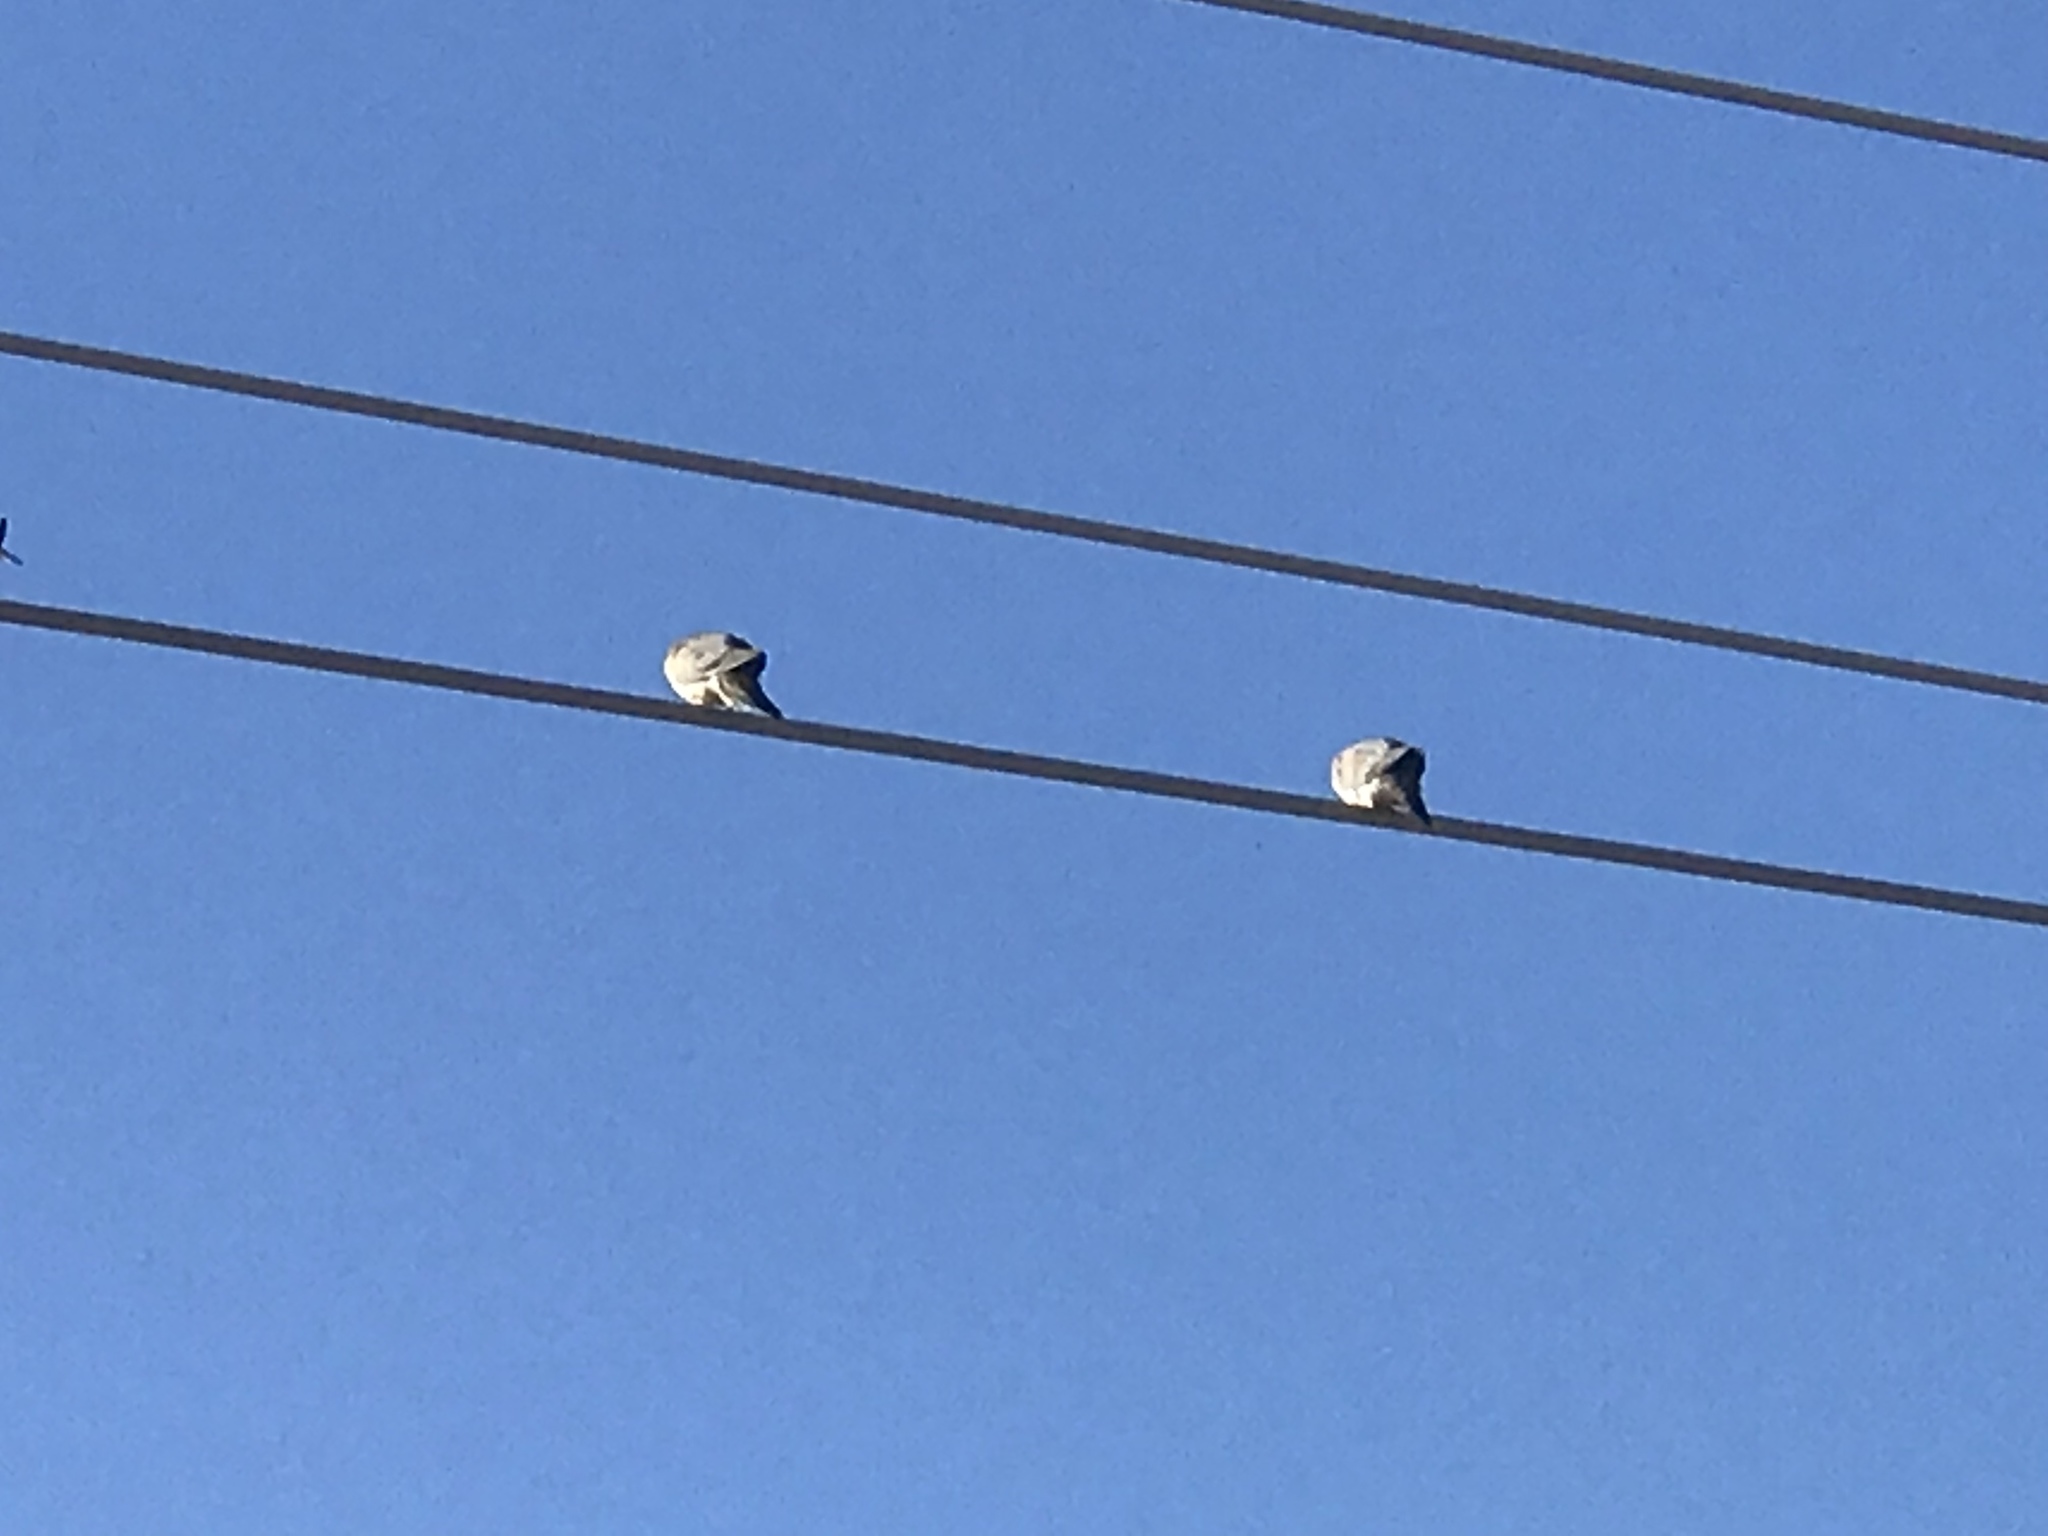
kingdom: Animalia
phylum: Chordata
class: Aves
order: Columbiformes
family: Columbidae
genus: Zenaida
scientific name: Zenaida macroura
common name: Mourning dove
